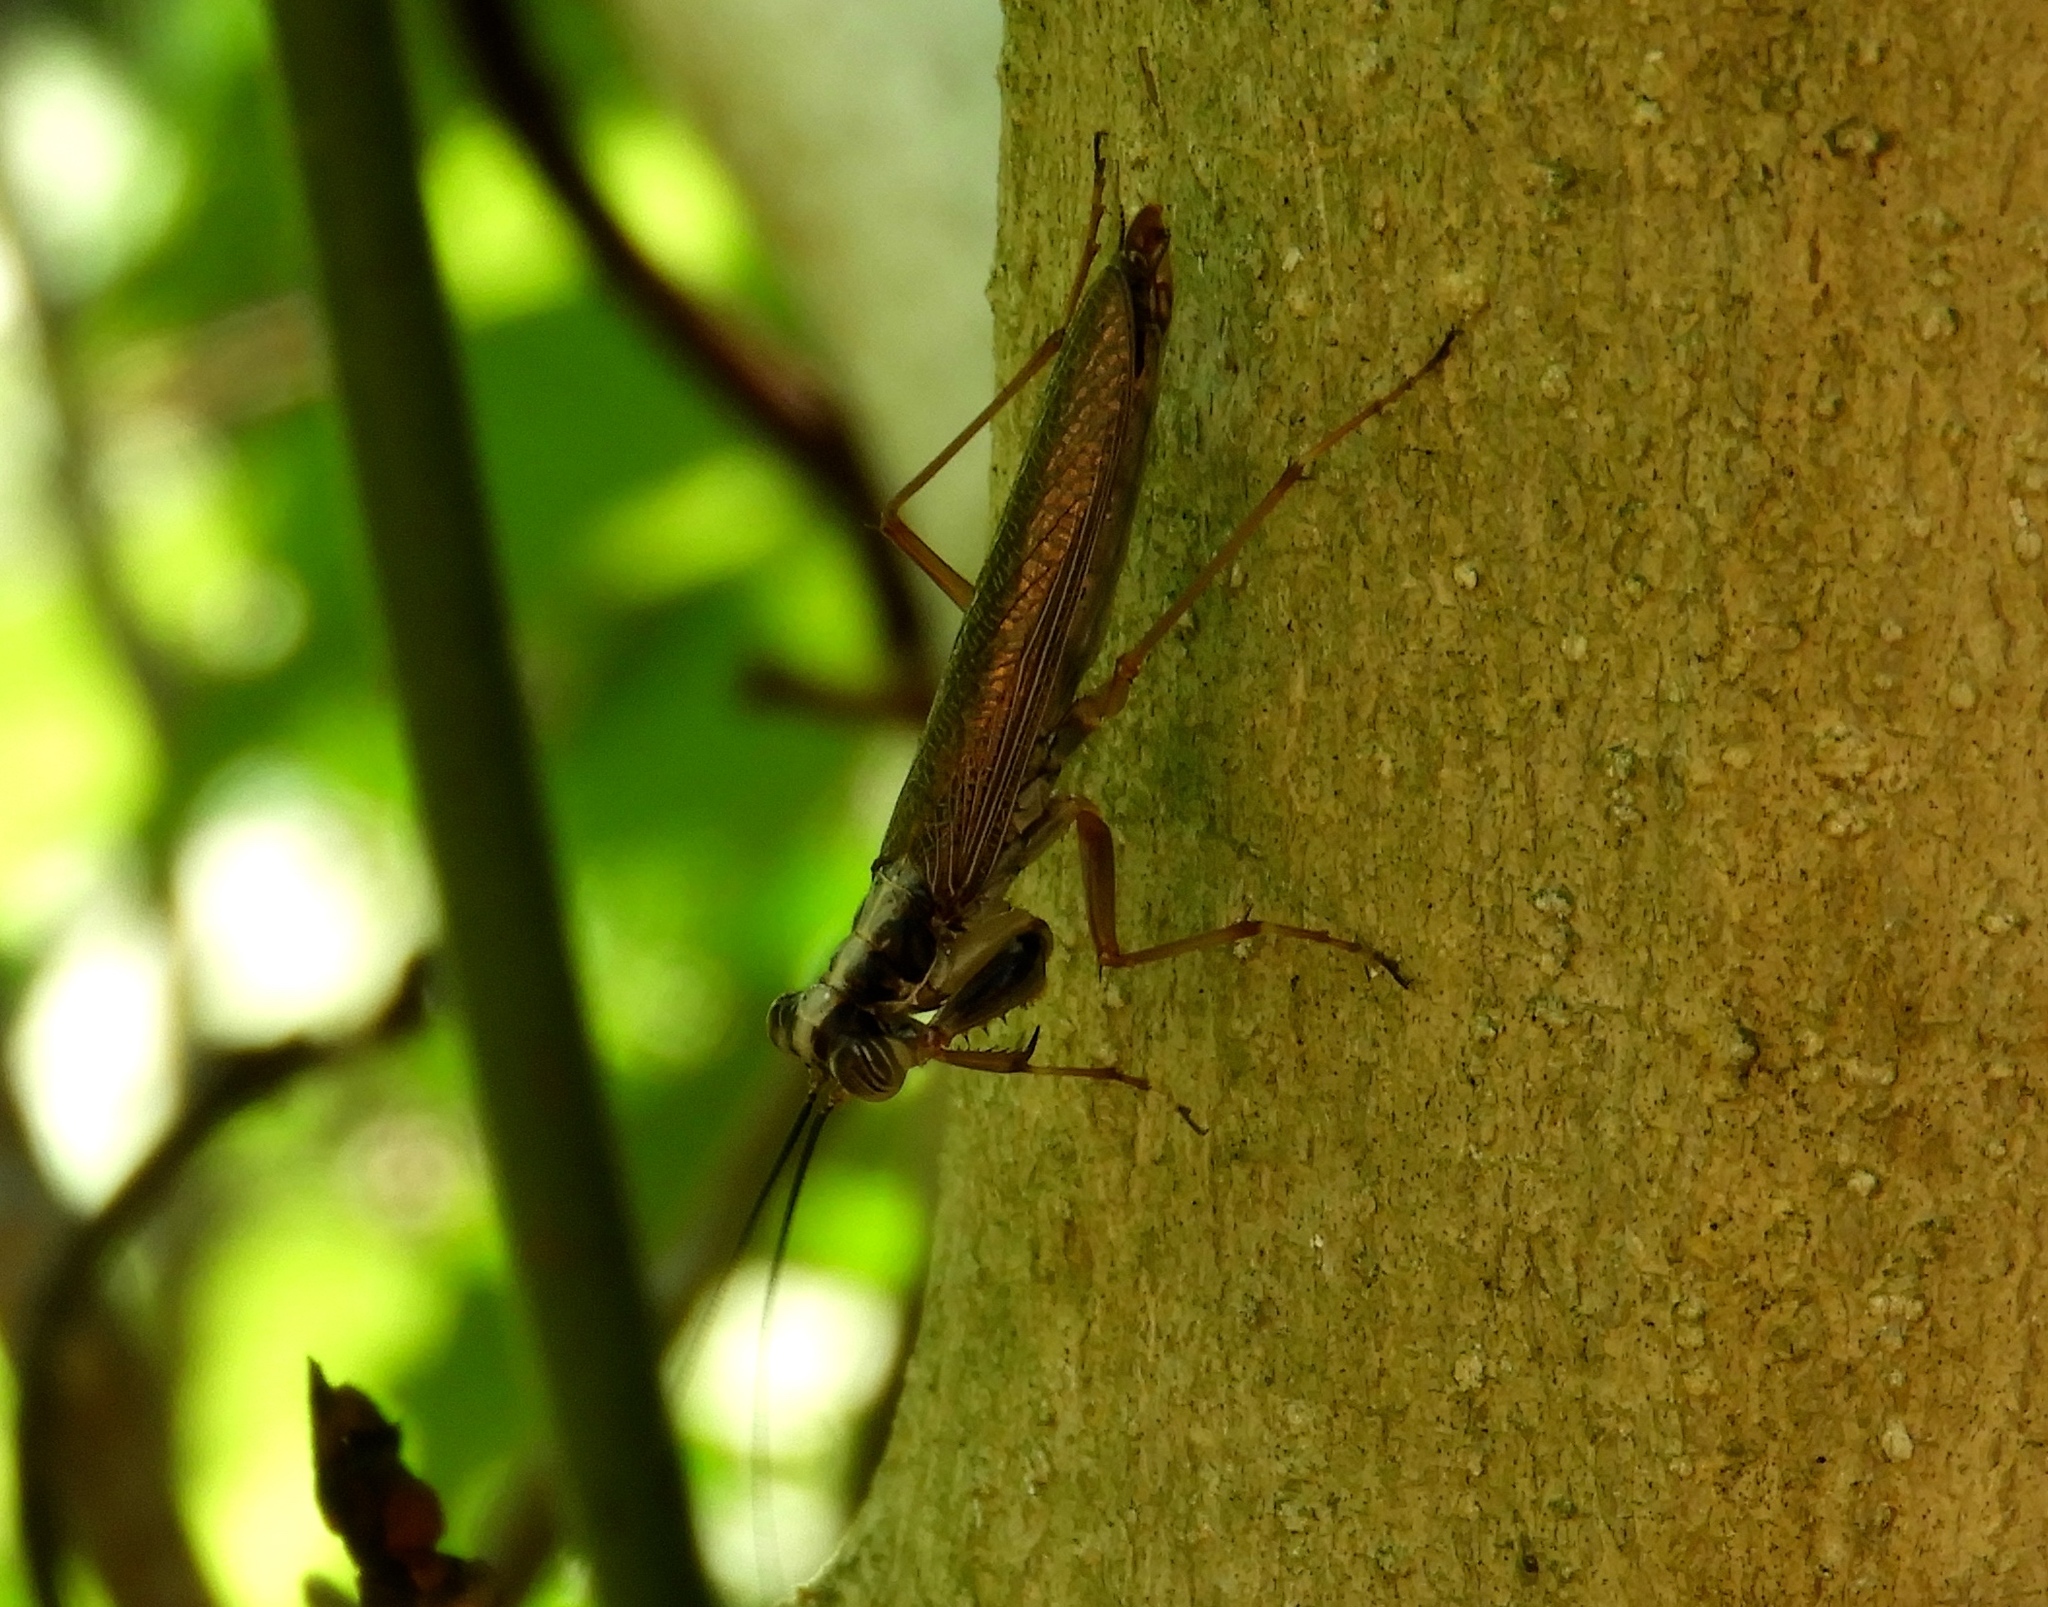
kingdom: Animalia
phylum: Arthropoda
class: Insecta
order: Mantodea
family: Mantoididae
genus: Mantoida
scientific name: Mantoida maya
